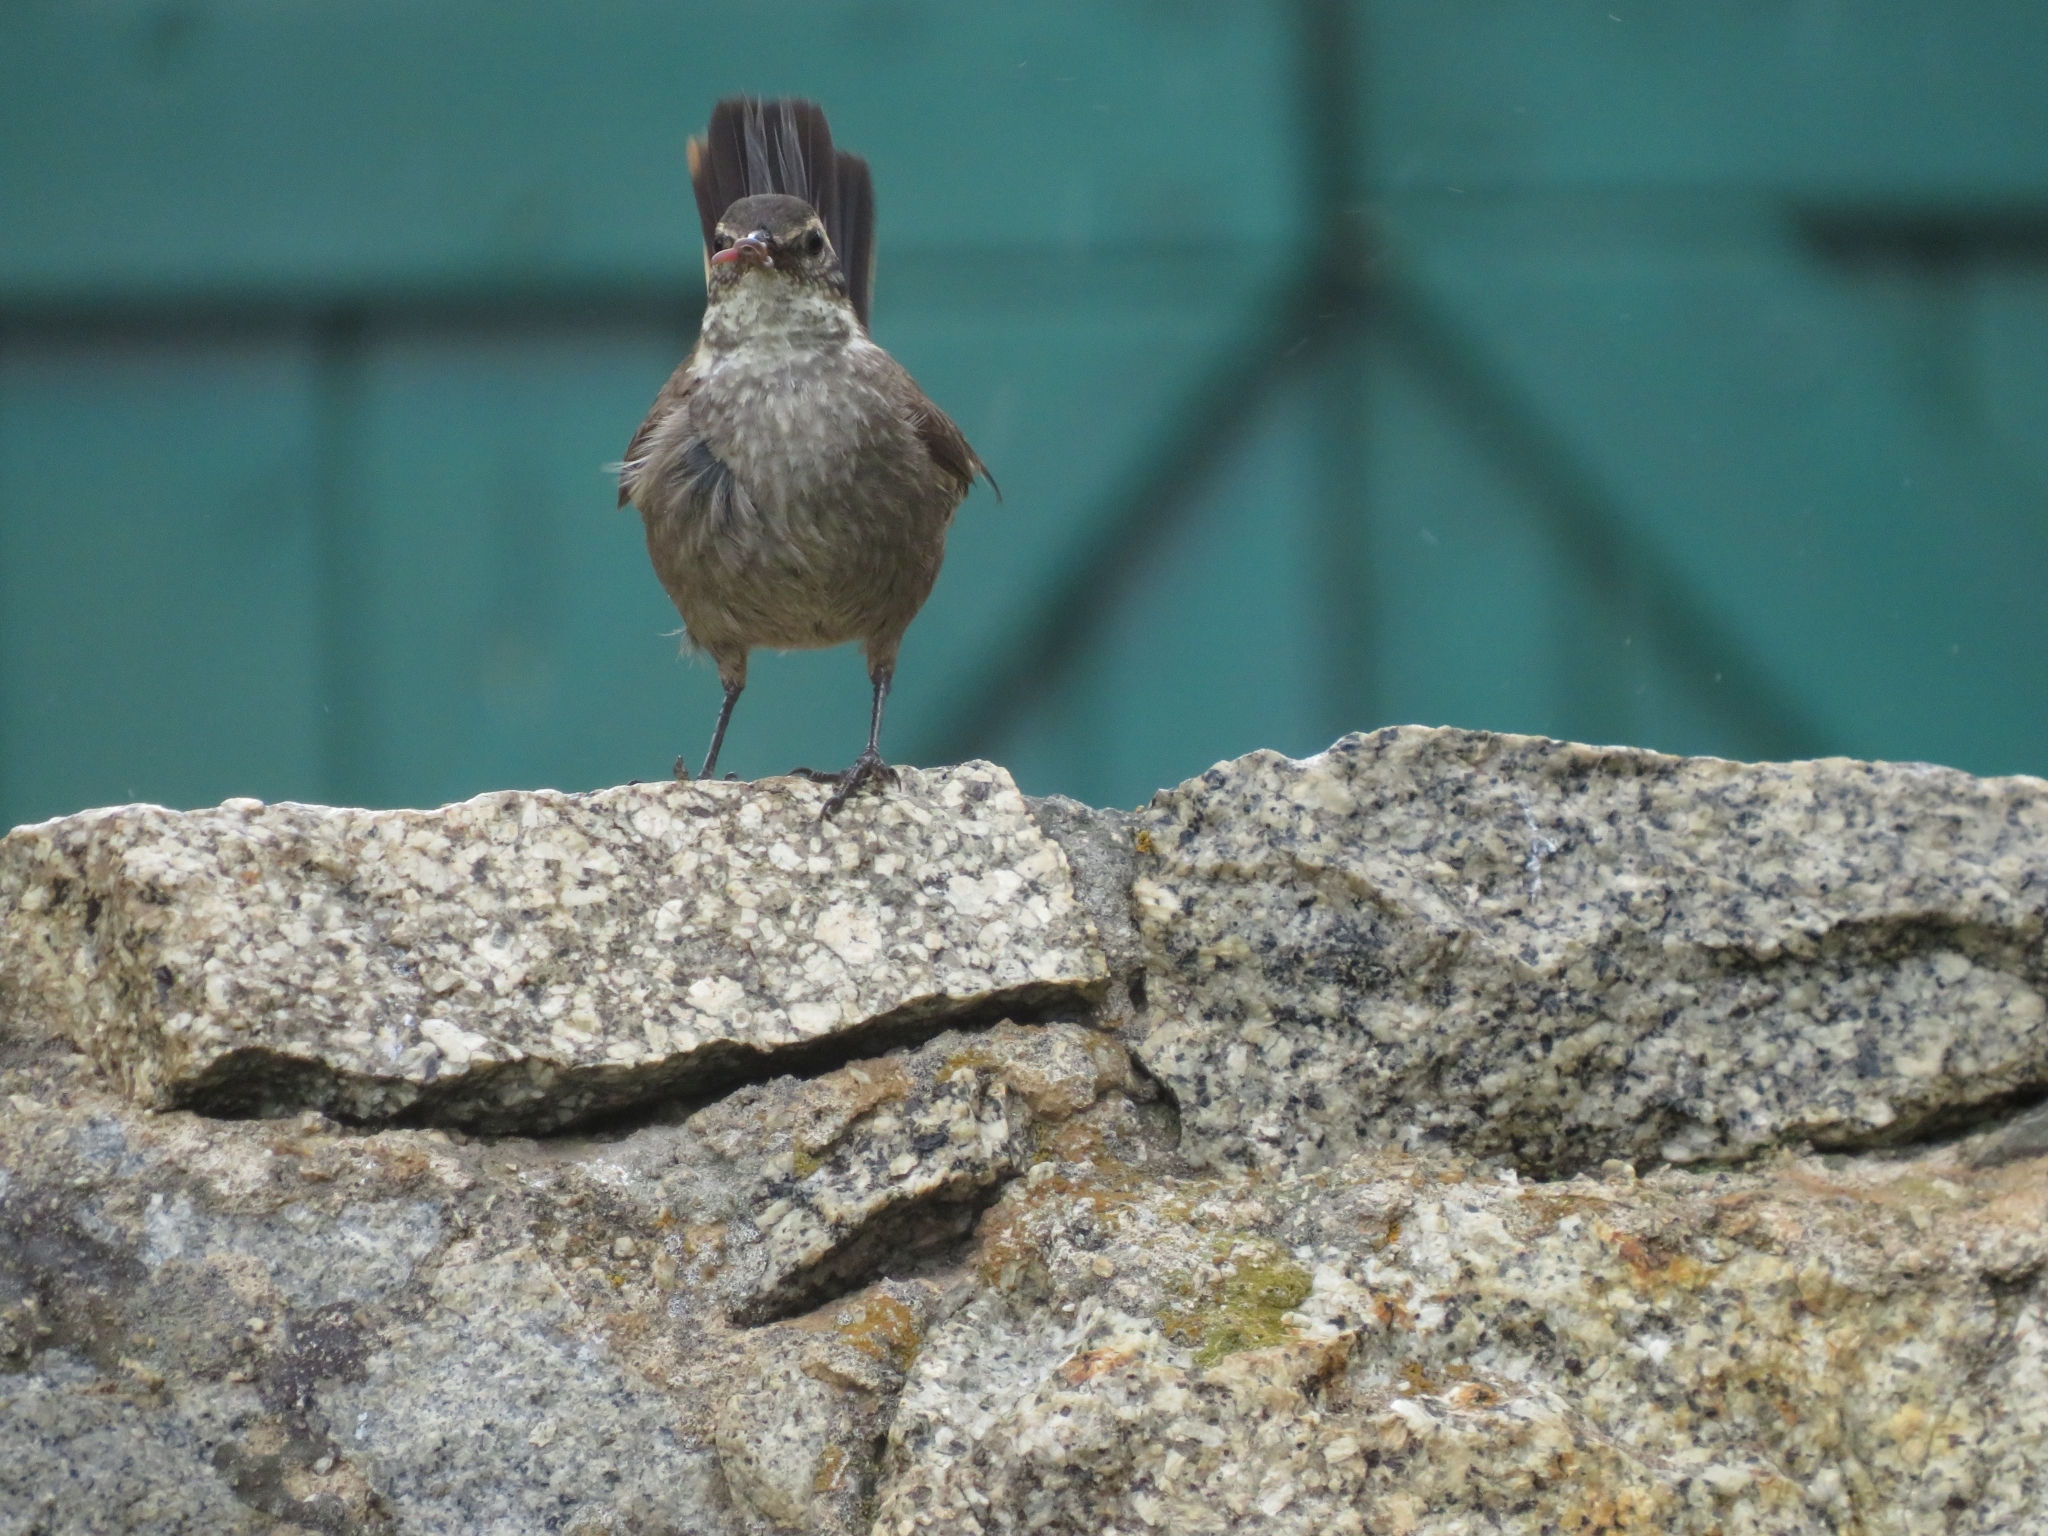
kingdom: Animalia
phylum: Chordata
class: Aves
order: Passeriformes
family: Furnariidae
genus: Cinclodes
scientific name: Cinclodes oustaleti
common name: Grey-flanked cinclodes
